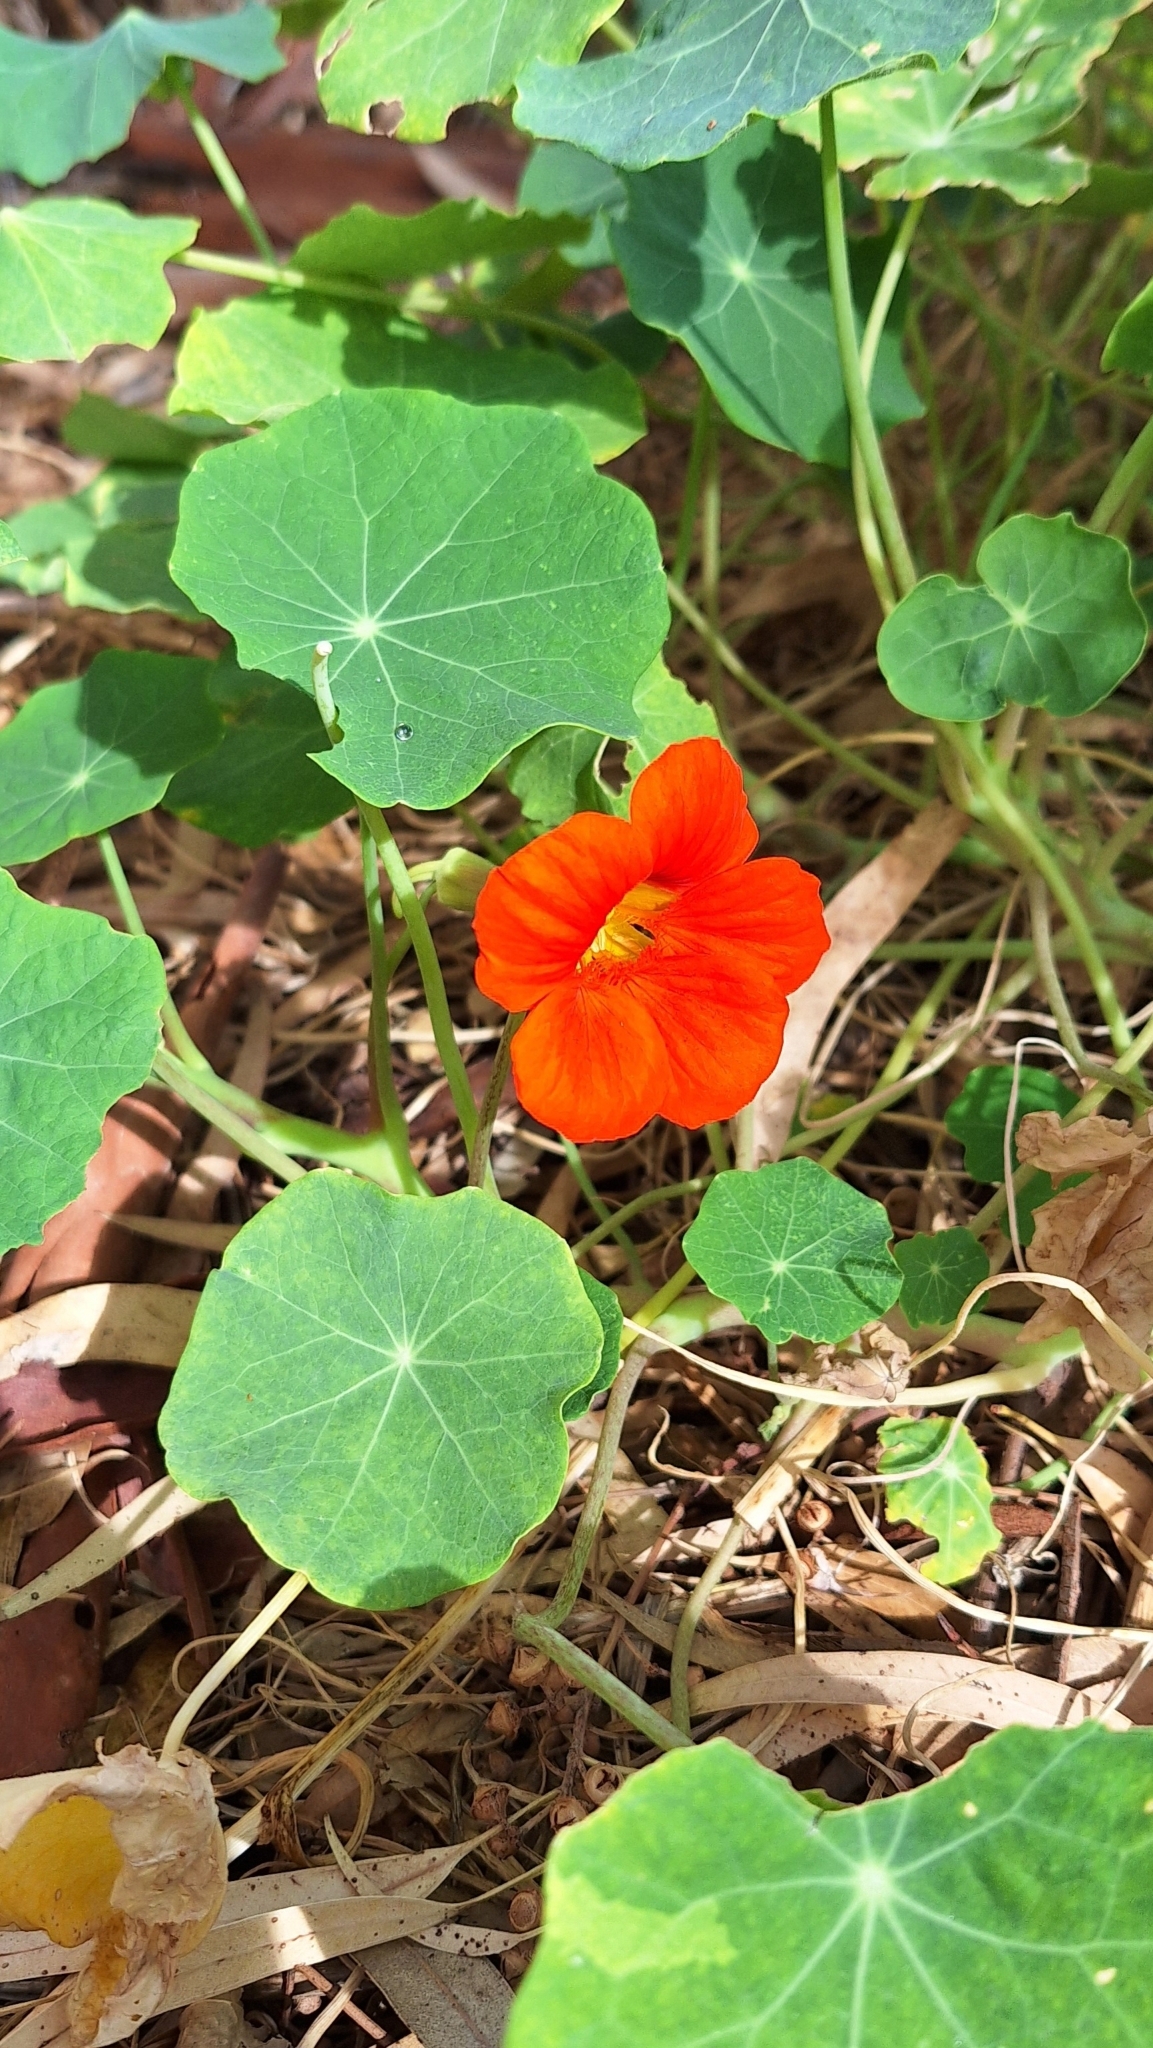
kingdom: Plantae
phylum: Tracheophyta
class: Magnoliopsida
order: Brassicales
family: Tropaeolaceae
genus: Tropaeolum
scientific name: Tropaeolum majus
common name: Nasturtium
